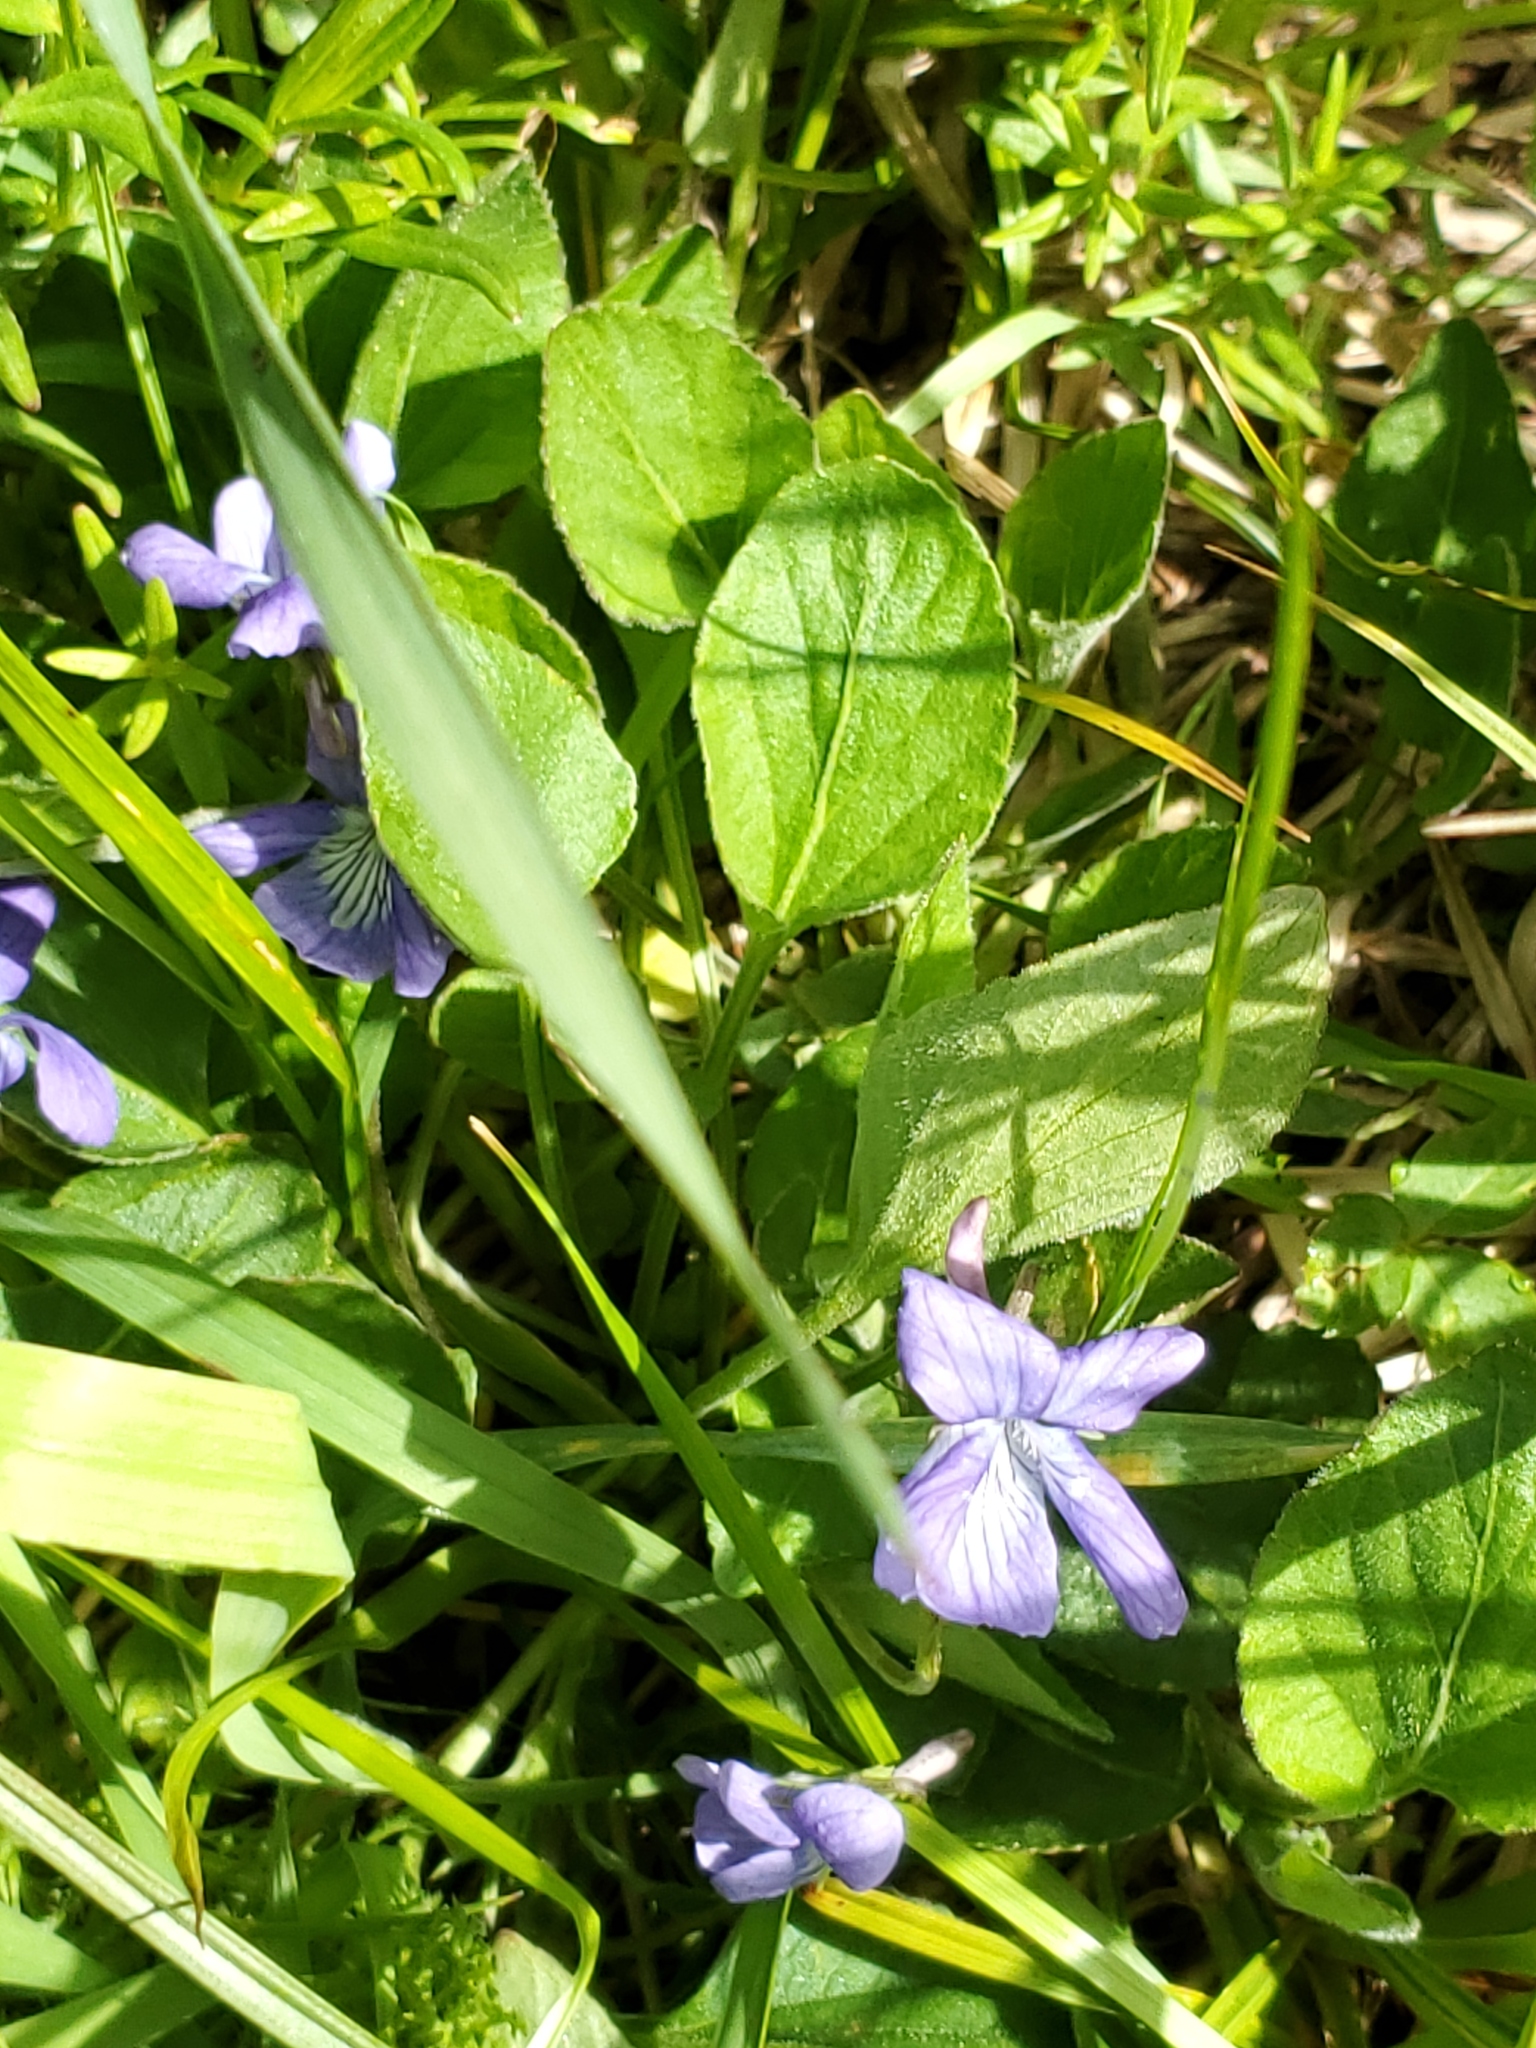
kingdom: Plantae
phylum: Tracheophyta
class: Magnoliopsida
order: Malpighiales
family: Violaceae
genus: Viola
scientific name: Viola adunca
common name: Sand violet
